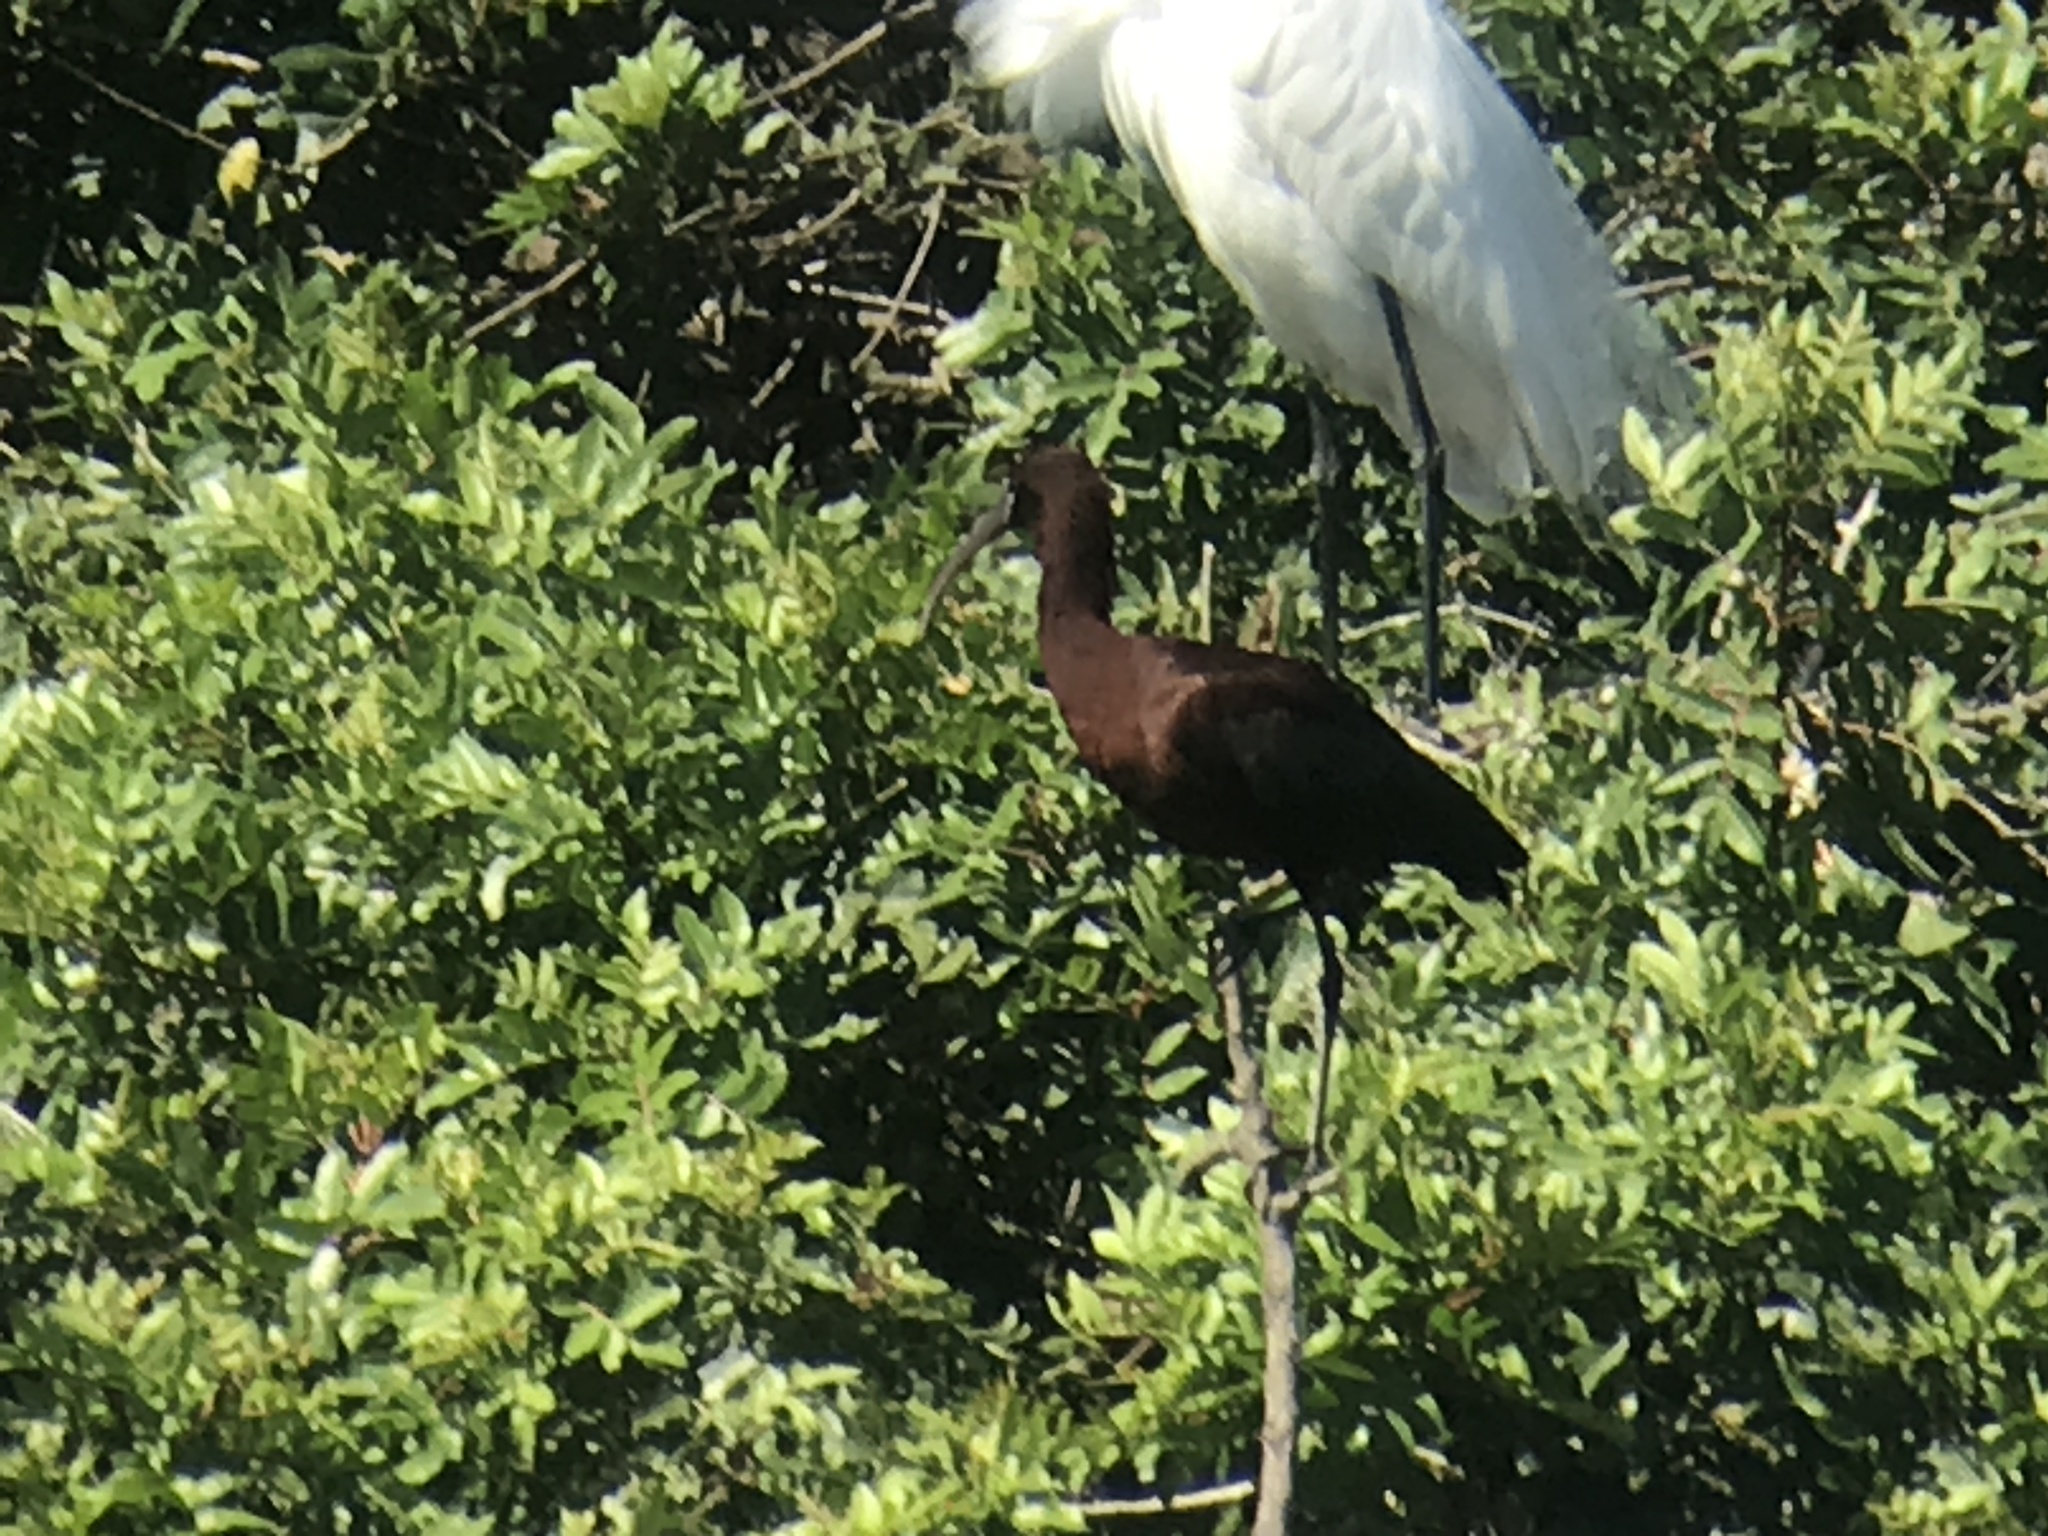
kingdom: Animalia
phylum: Chordata
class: Aves
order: Pelecaniformes
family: Threskiornithidae
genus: Plegadis
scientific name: Plegadis falcinellus
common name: Glossy ibis
